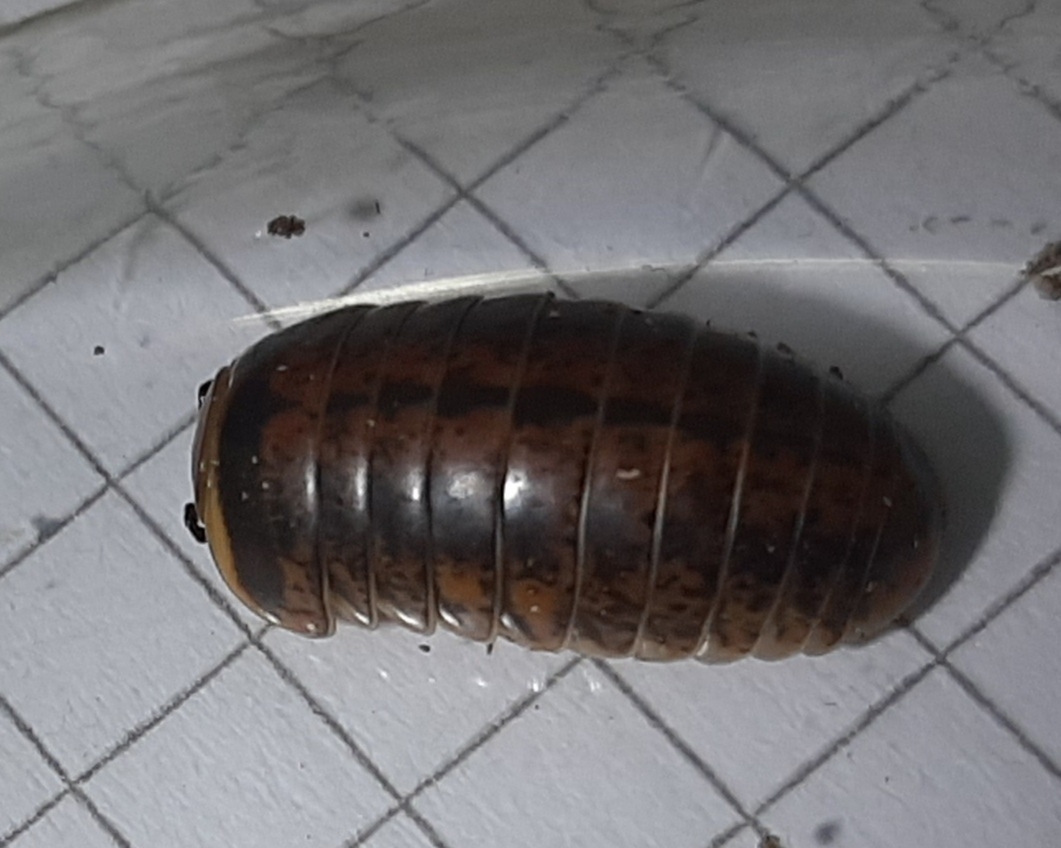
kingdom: Animalia
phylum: Arthropoda
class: Diplopoda
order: Glomerida
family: Glomeridae
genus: Glomeris
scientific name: Glomeris klugii
